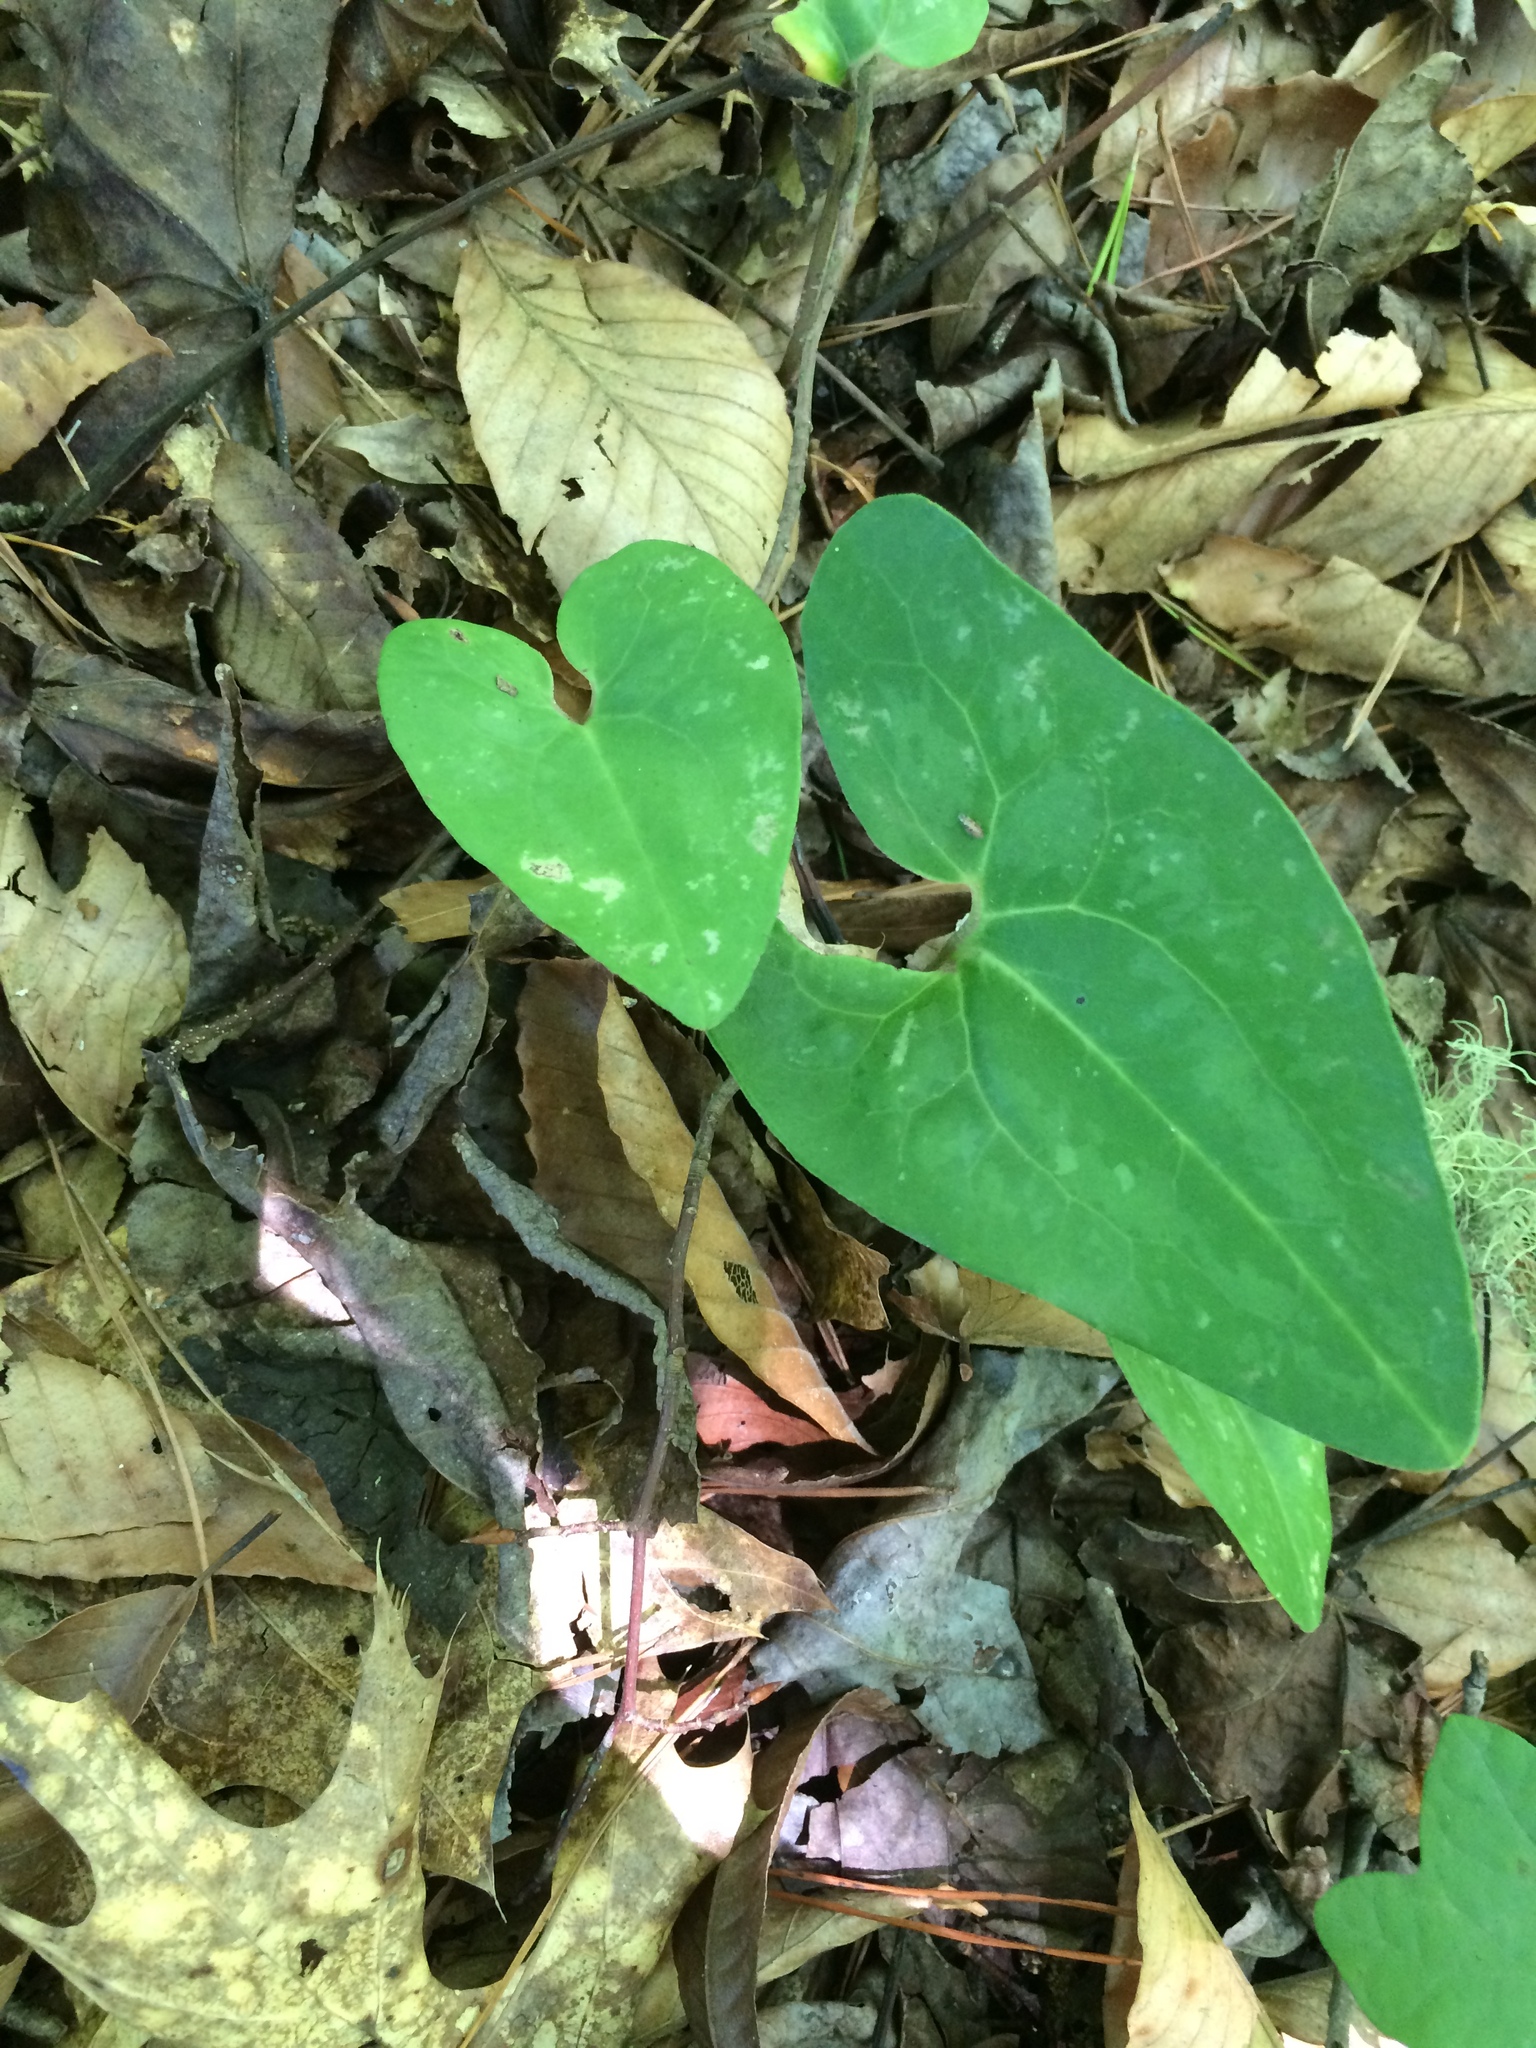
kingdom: Plantae
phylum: Tracheophyta
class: Magnoliopsida
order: Piperales
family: Aristolochiaceae
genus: Hexastylis
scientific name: Hexastylis arifolia
